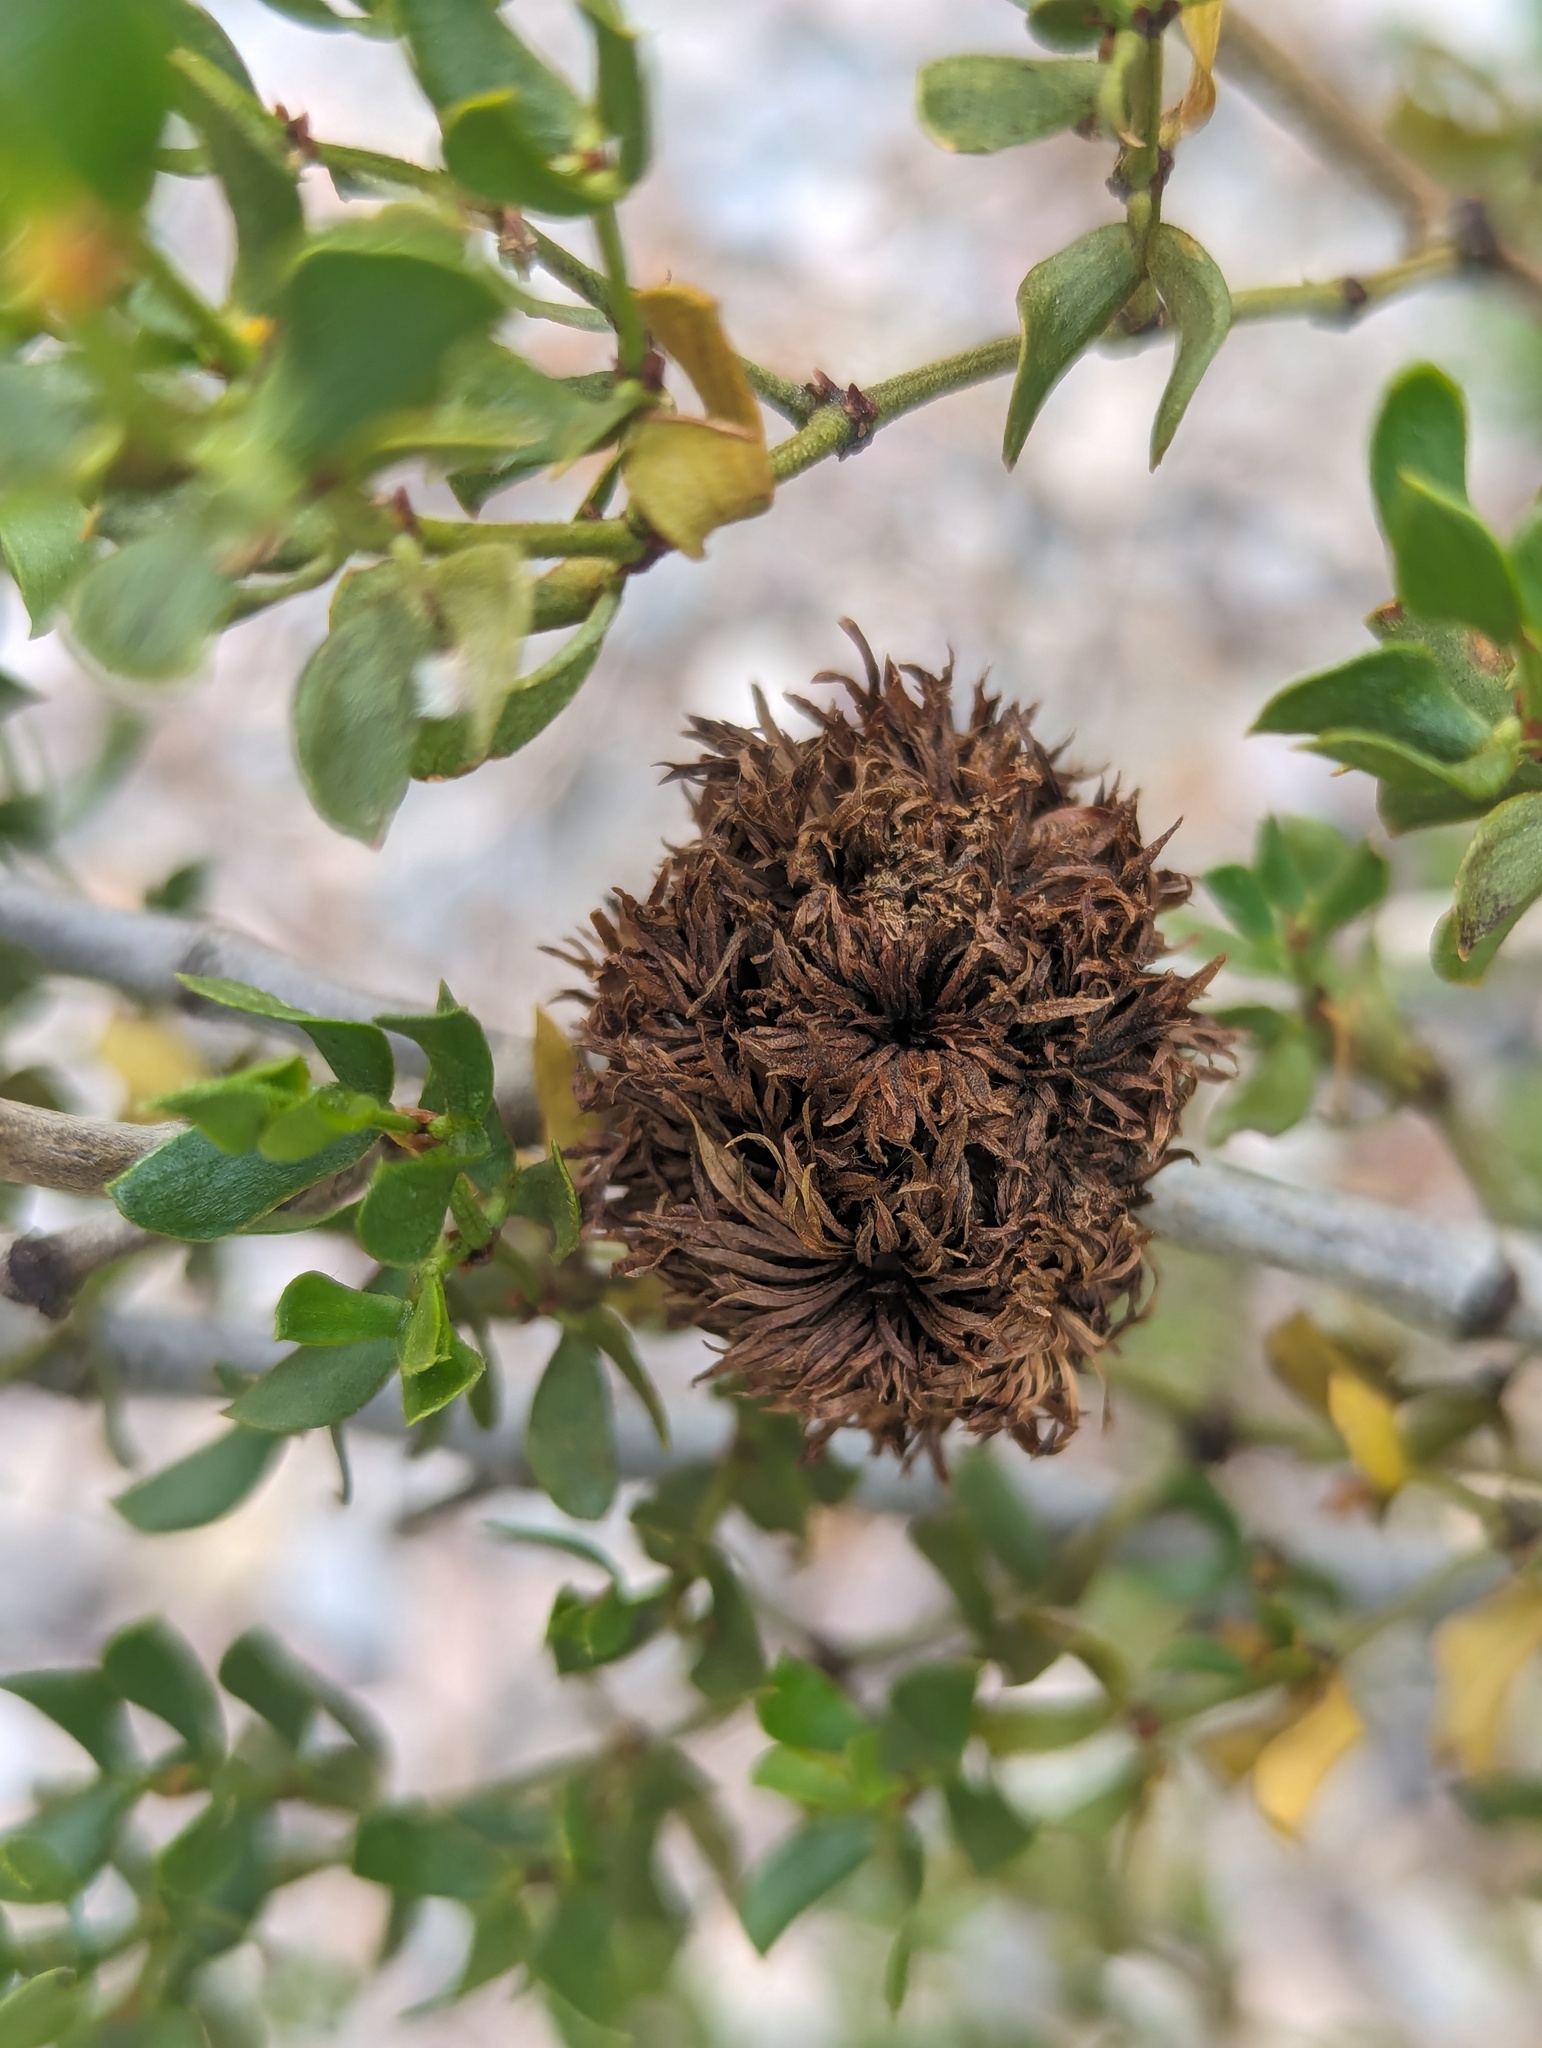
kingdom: Animalia
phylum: Arthropoda
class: Insecta
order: Diptera
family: Cecidomyiidae
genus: Asphondylia
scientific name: Asphondylia auripila
